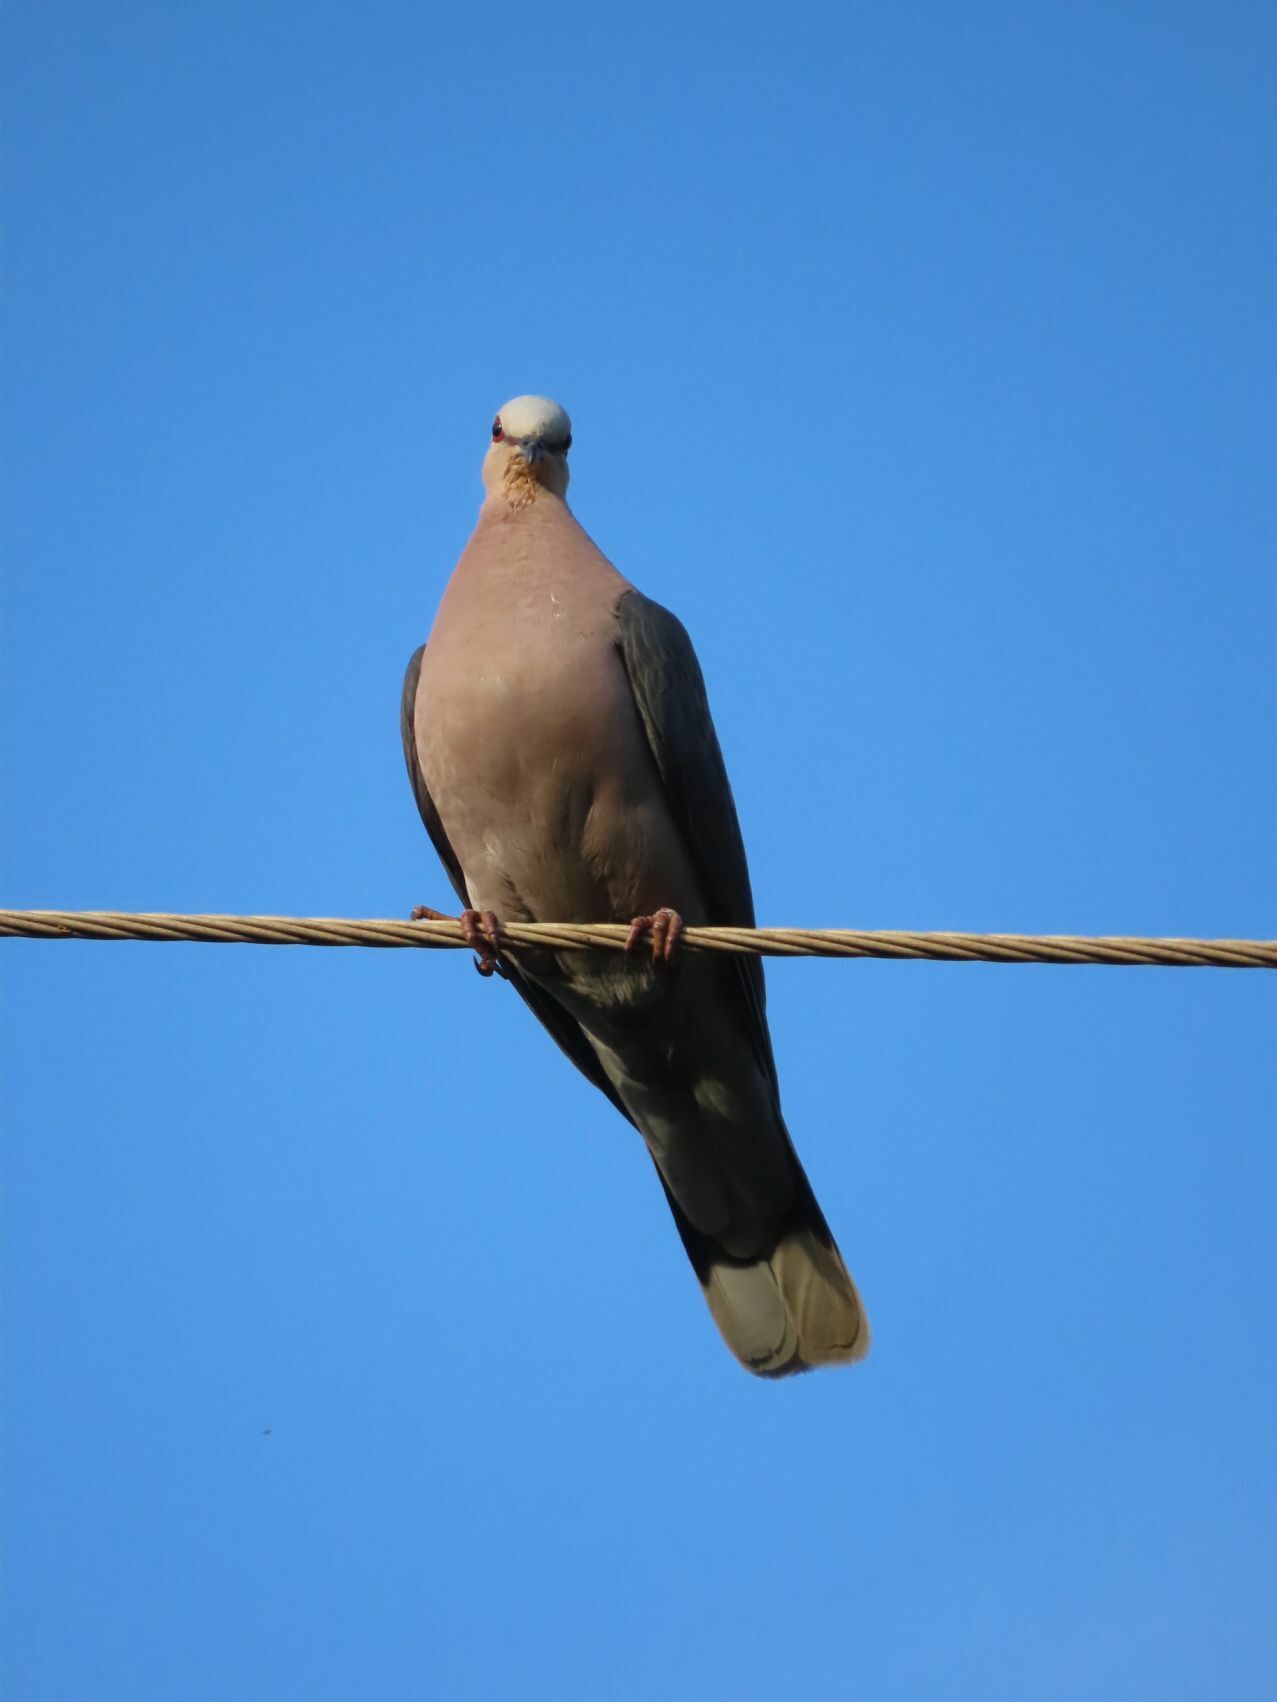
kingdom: Animalia
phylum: Chordata
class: Aves
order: Columbiformes
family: Columbidae
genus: Streptopelia
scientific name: Streptopelia semitorquata
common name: Red-eyed dove
